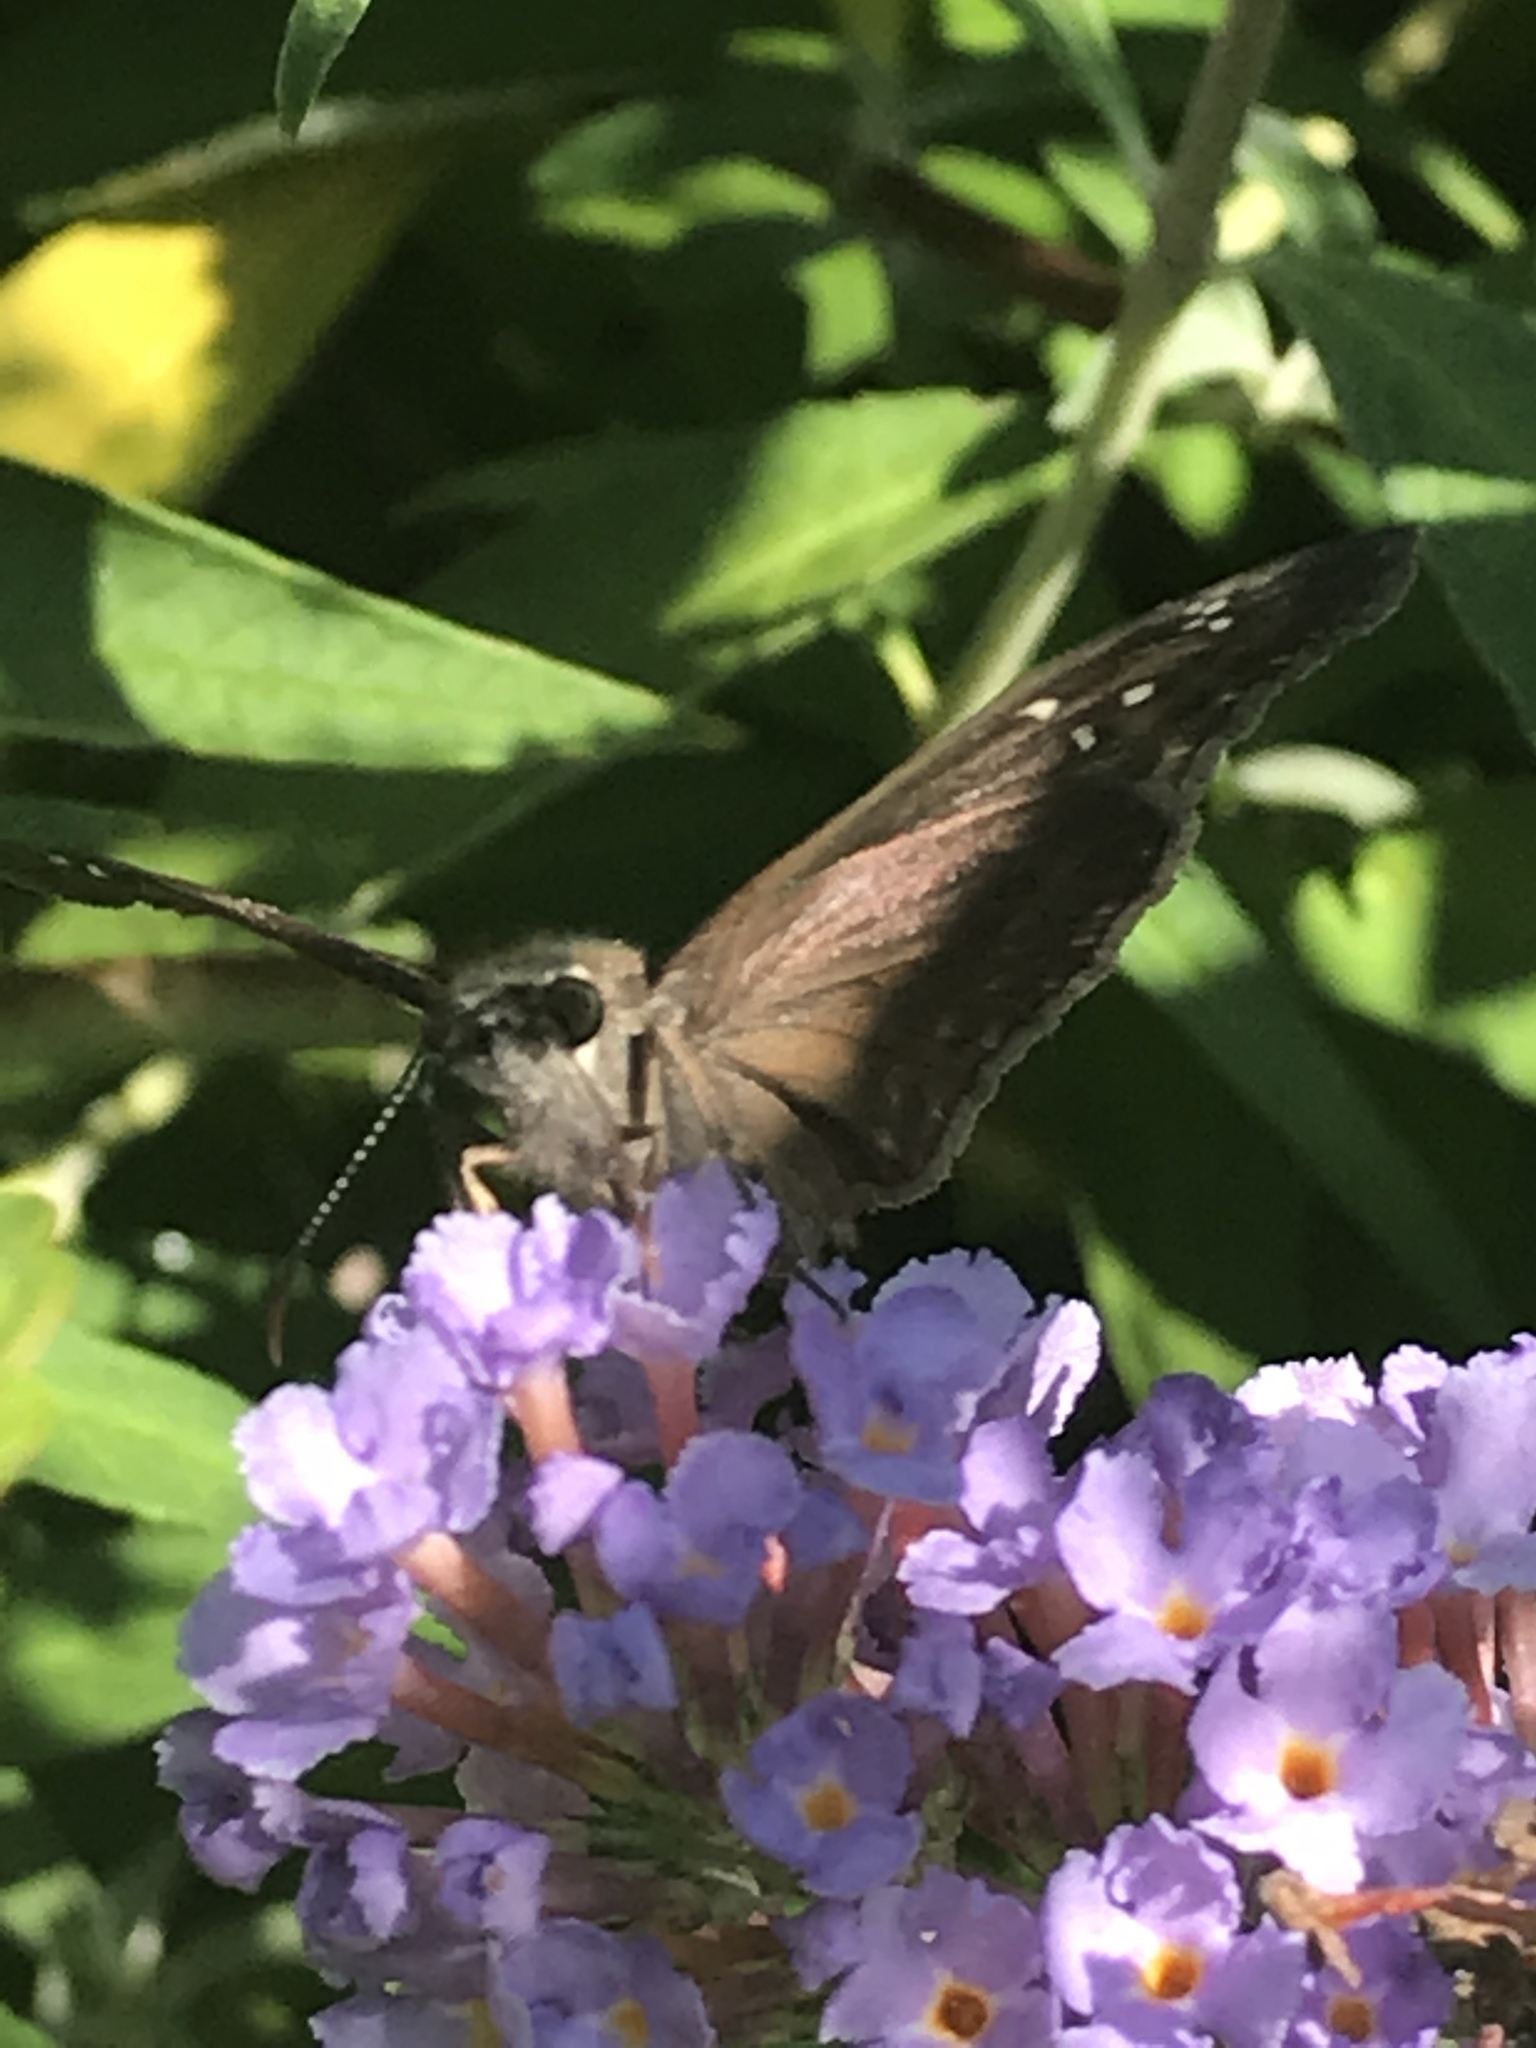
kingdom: Animalia
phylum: Arthropoda
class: Insecta
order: Lepidoptera
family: Hesperiidae
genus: Erynnis
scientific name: Erynnis horatius
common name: Horace's duskywing
